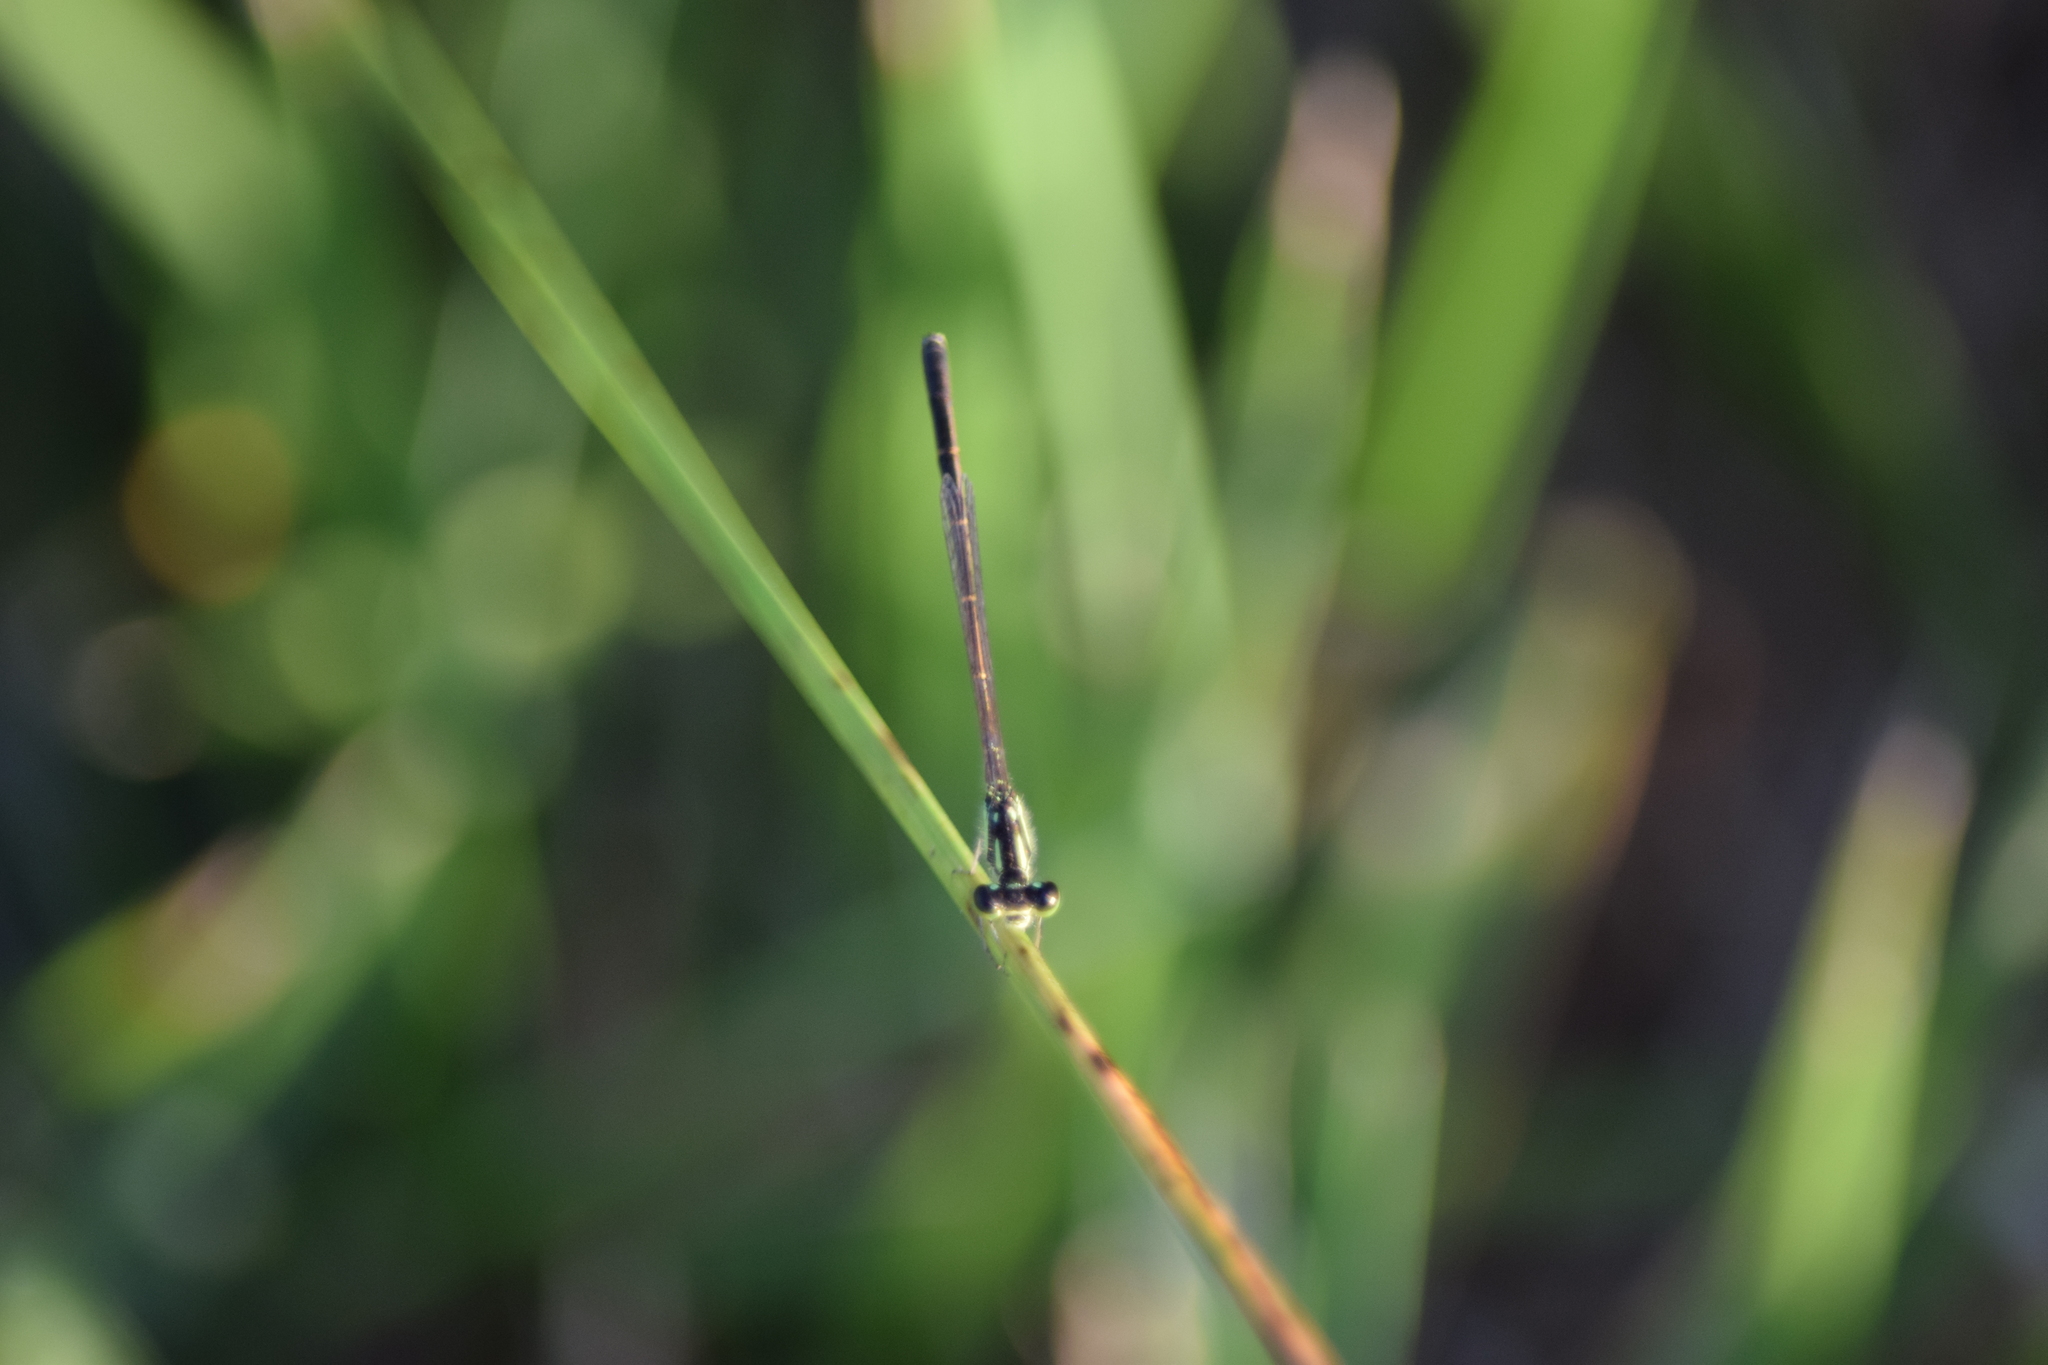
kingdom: Animalia
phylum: Arthropoda
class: Insecta
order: Odonata
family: Coenagrionidae
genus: Ischnura
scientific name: Ischnura posita
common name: Fragile forktail
